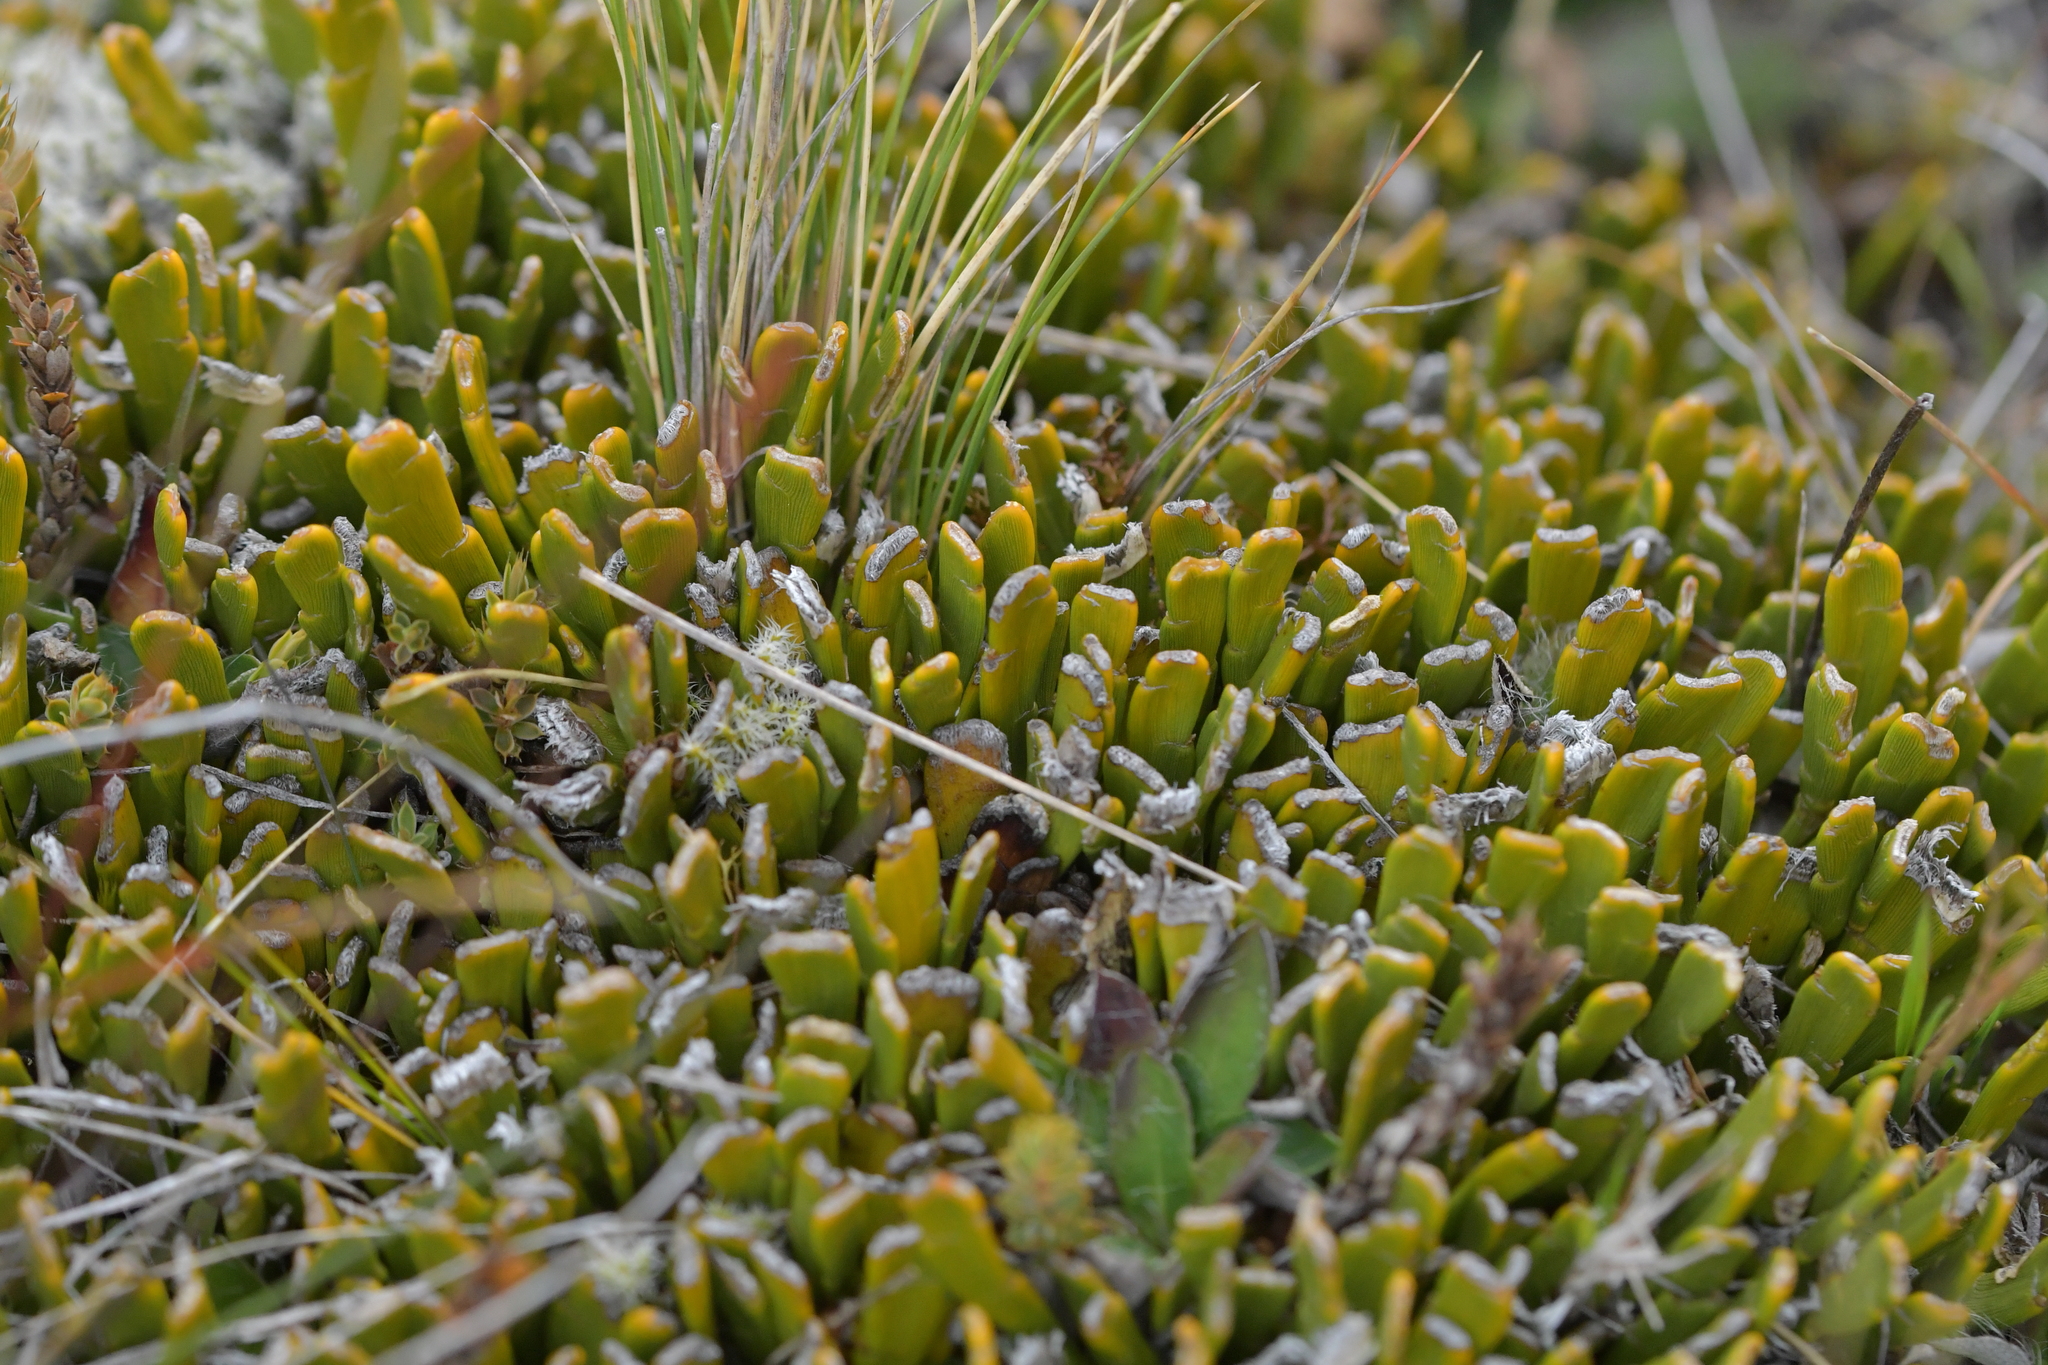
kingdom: Plantae
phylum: Tracheophyta
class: Magnoliopsida
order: Fabales
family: Fabaceae
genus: Carmichaelia
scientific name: Carmichaelia monroi
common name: Stout dwarf broom
